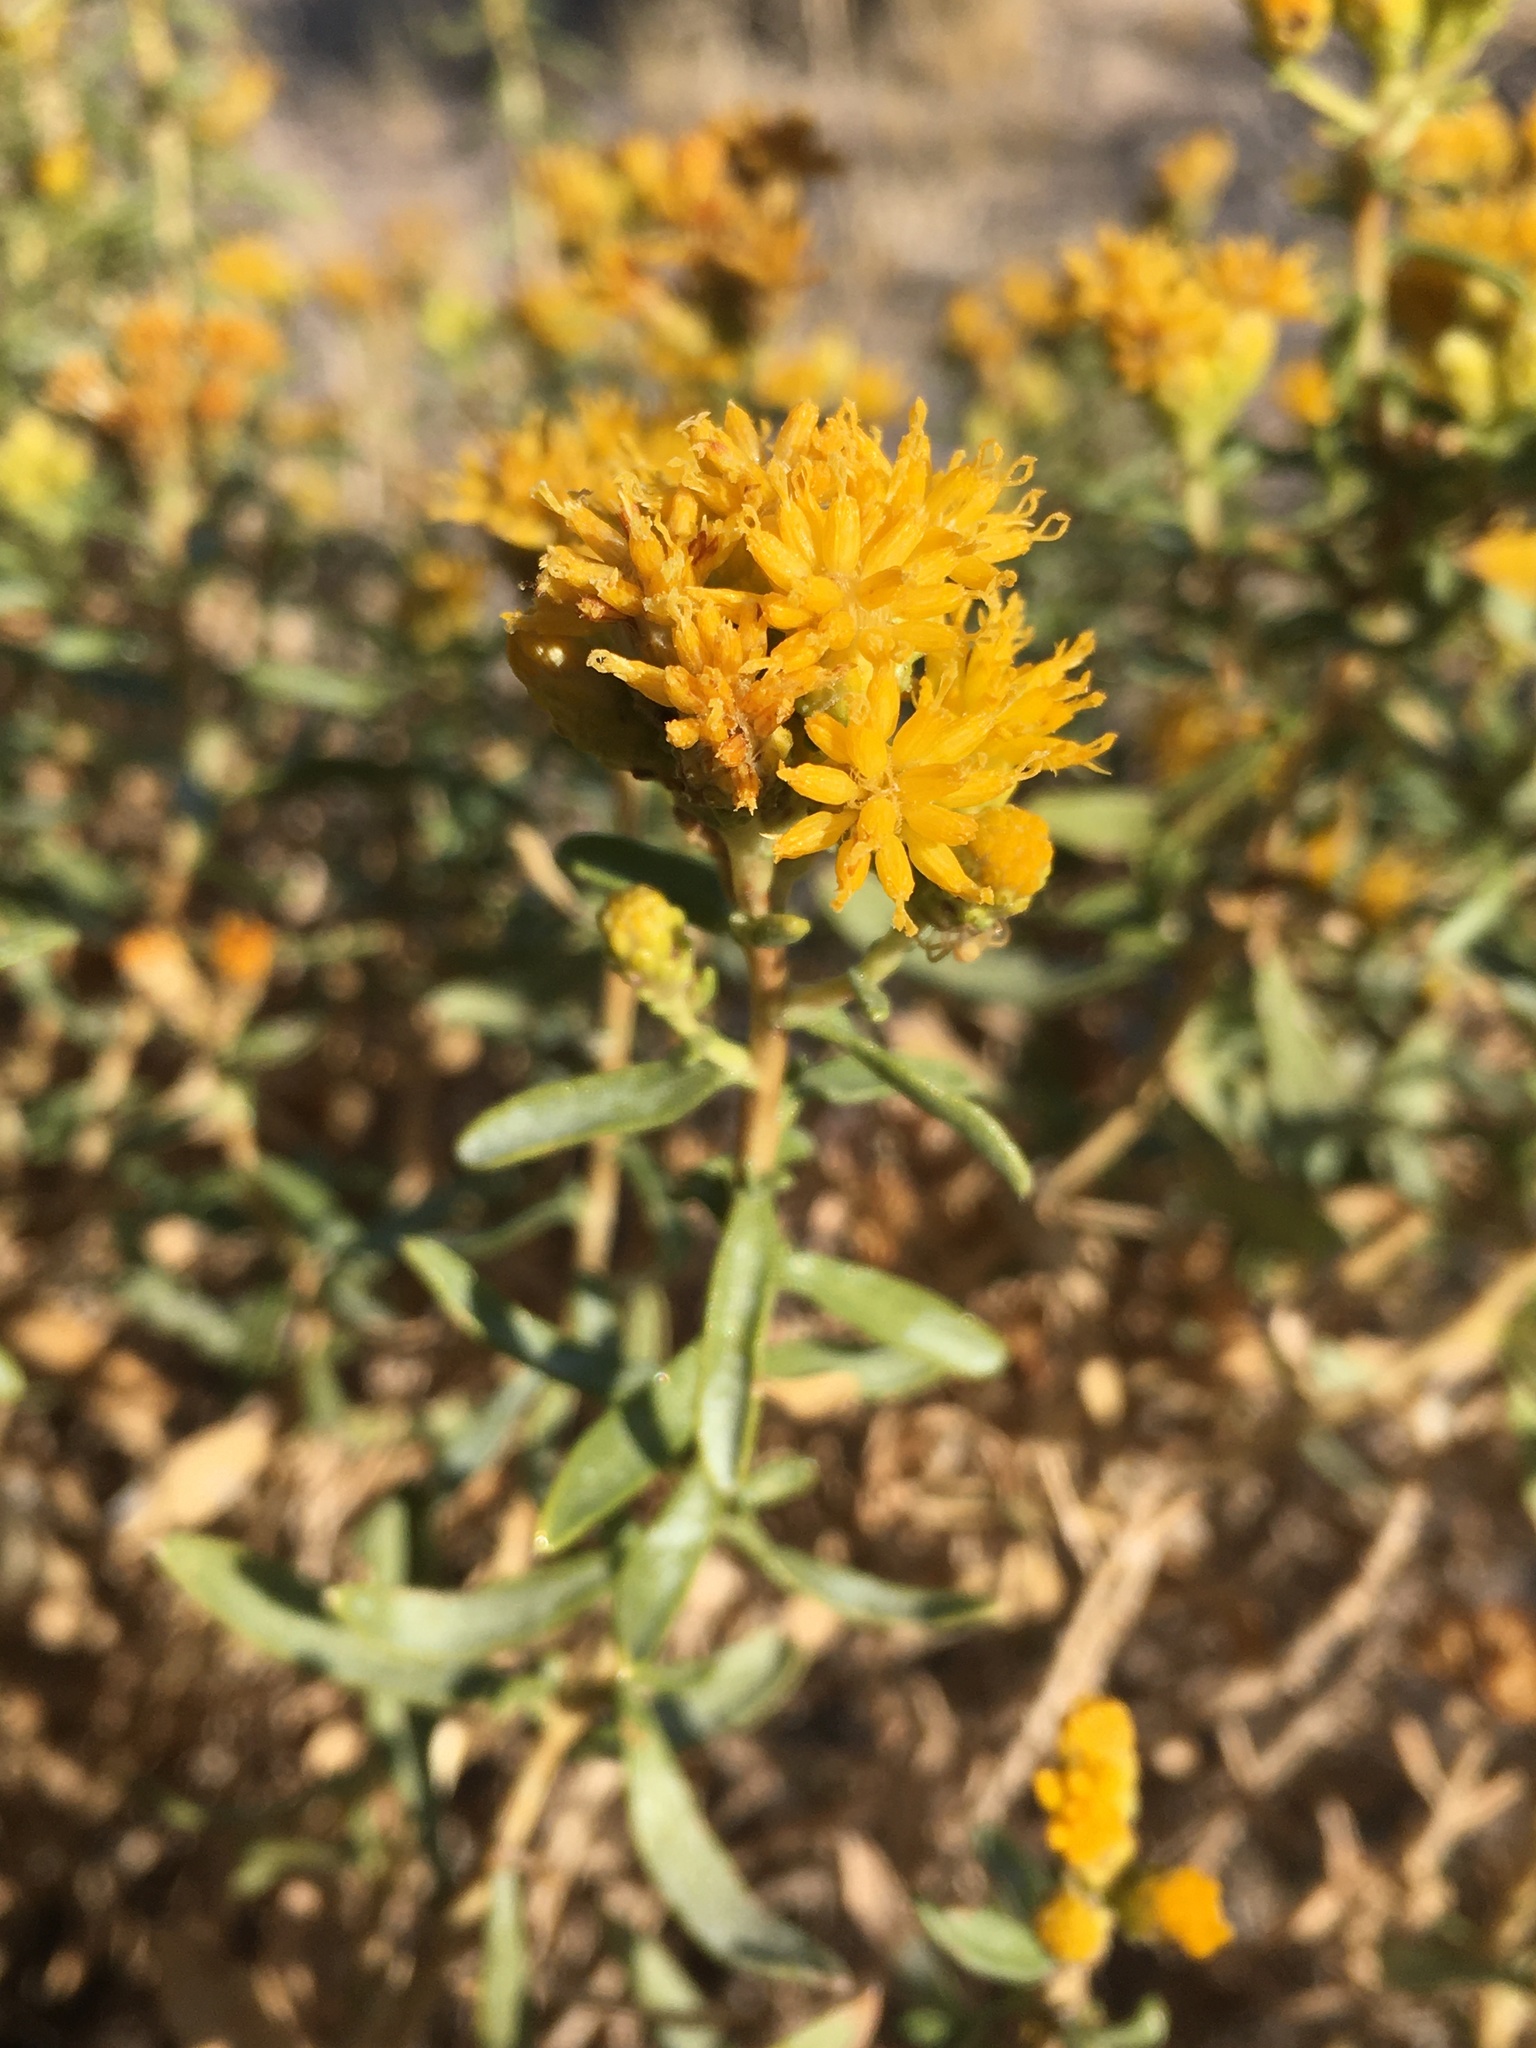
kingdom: Plantae
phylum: Tracheophyta
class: Magnoliopsida
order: Asterales
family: Asteraceae
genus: Isocoma
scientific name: Isocoma acradenia
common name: Alkali jimmyweed
